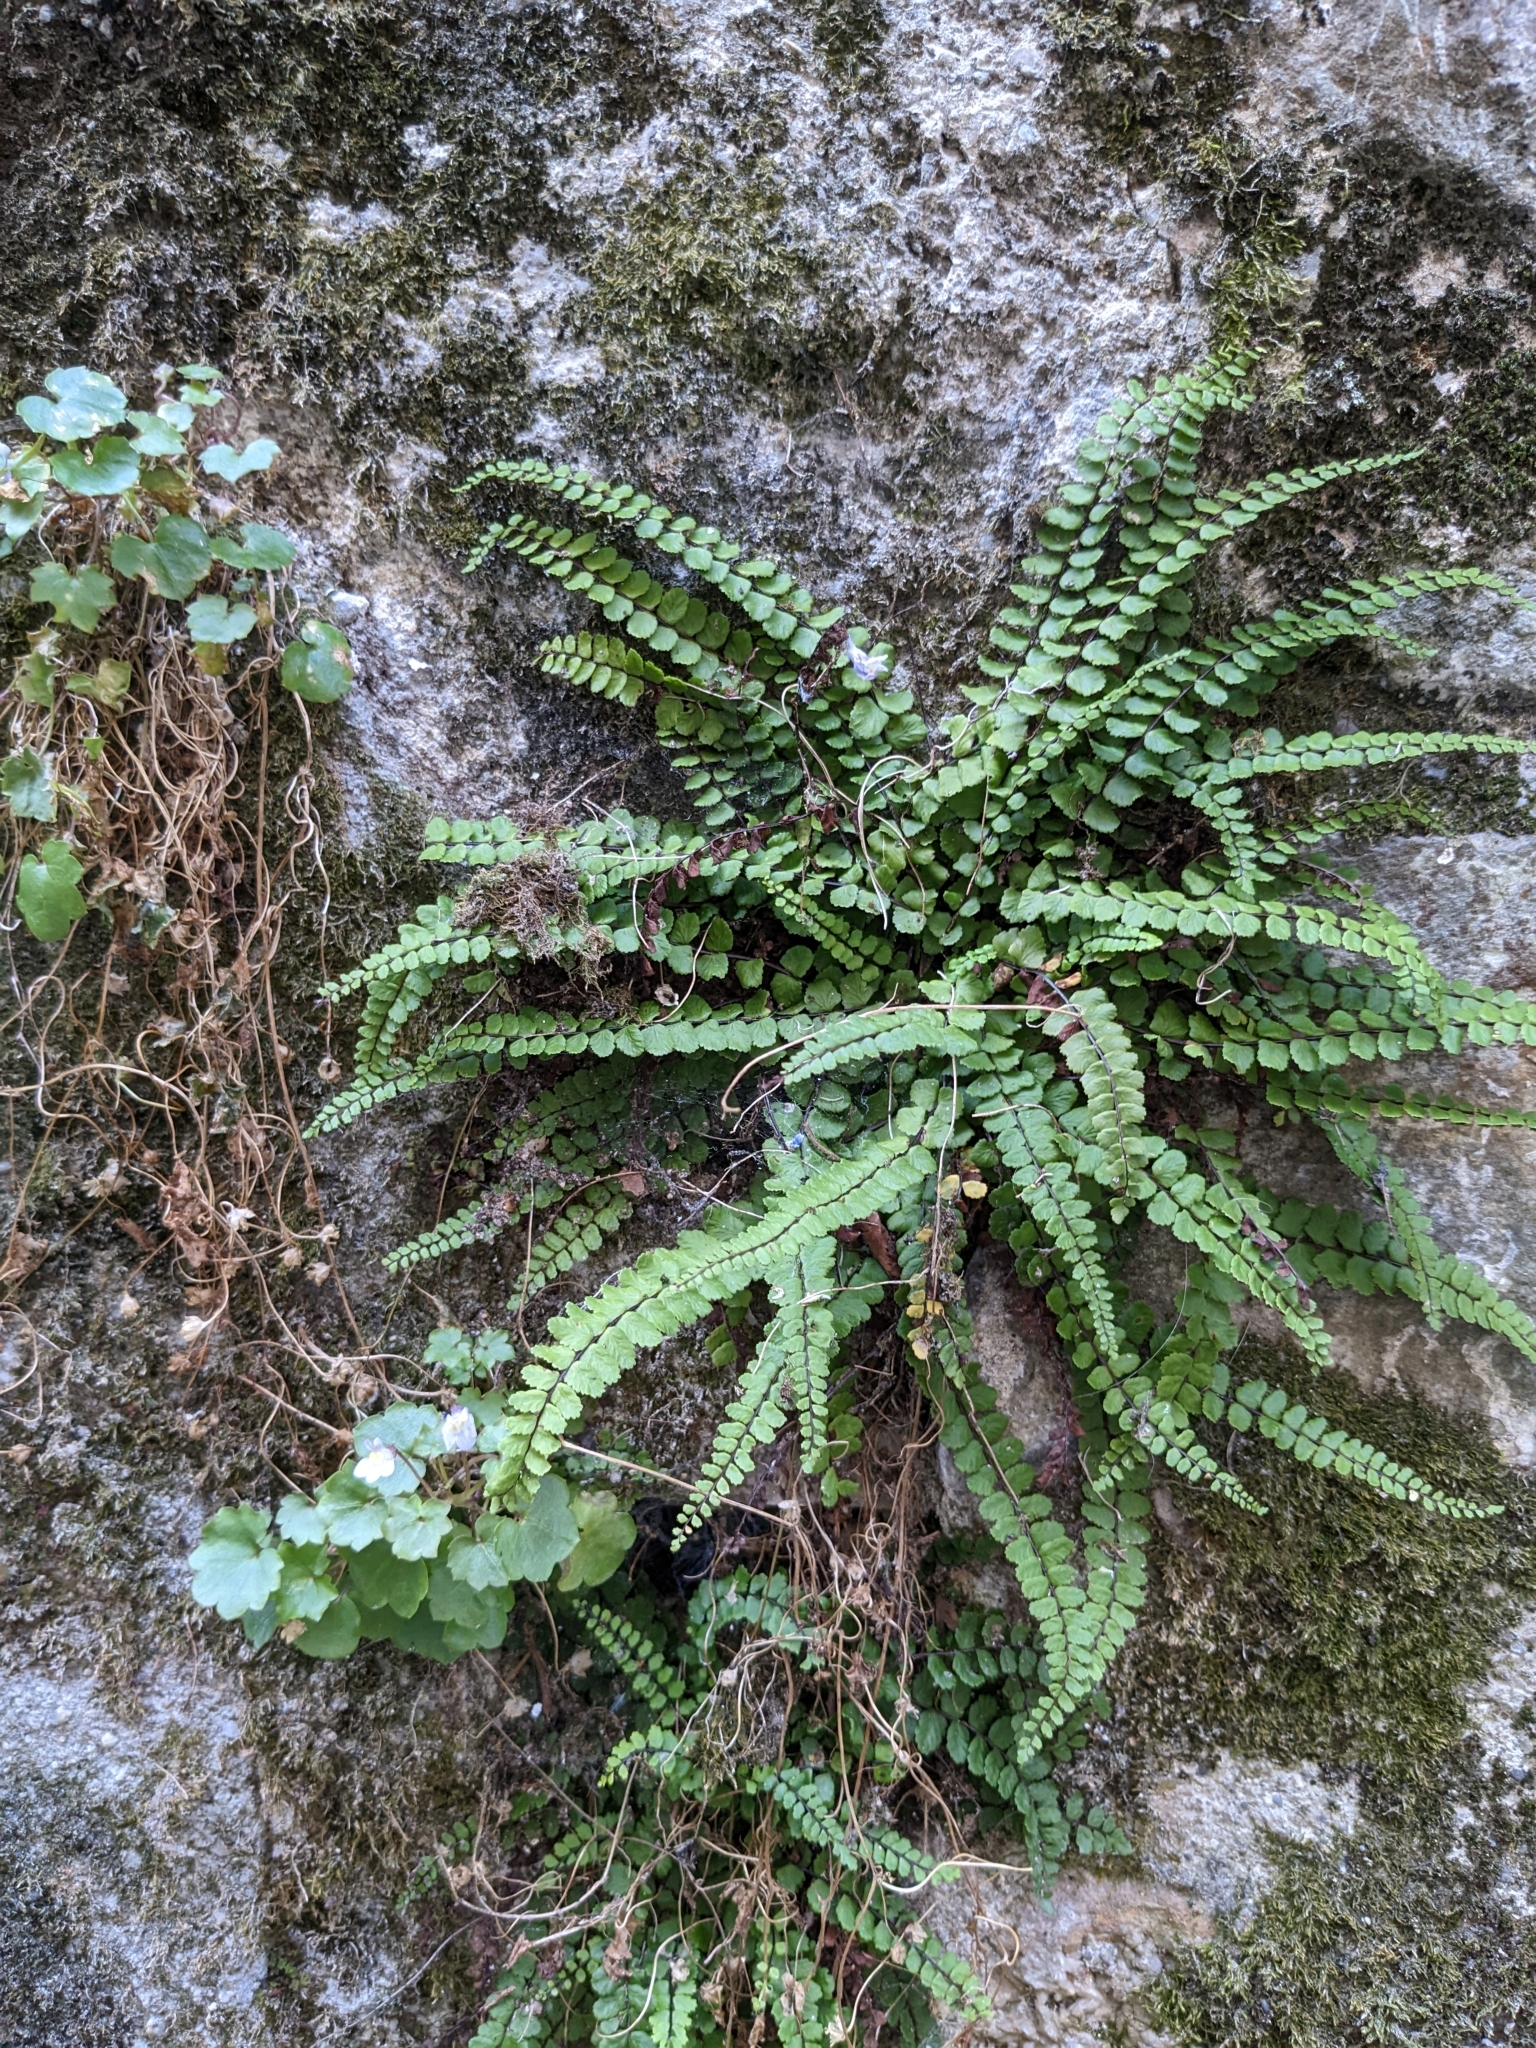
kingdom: Plantae
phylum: Tracheophyta
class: Polypodiopsida
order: Polypodiales
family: Aspleniaceae
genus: Asplenium
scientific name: Asplenium trichomanes
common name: Maidenhair spleenwort
